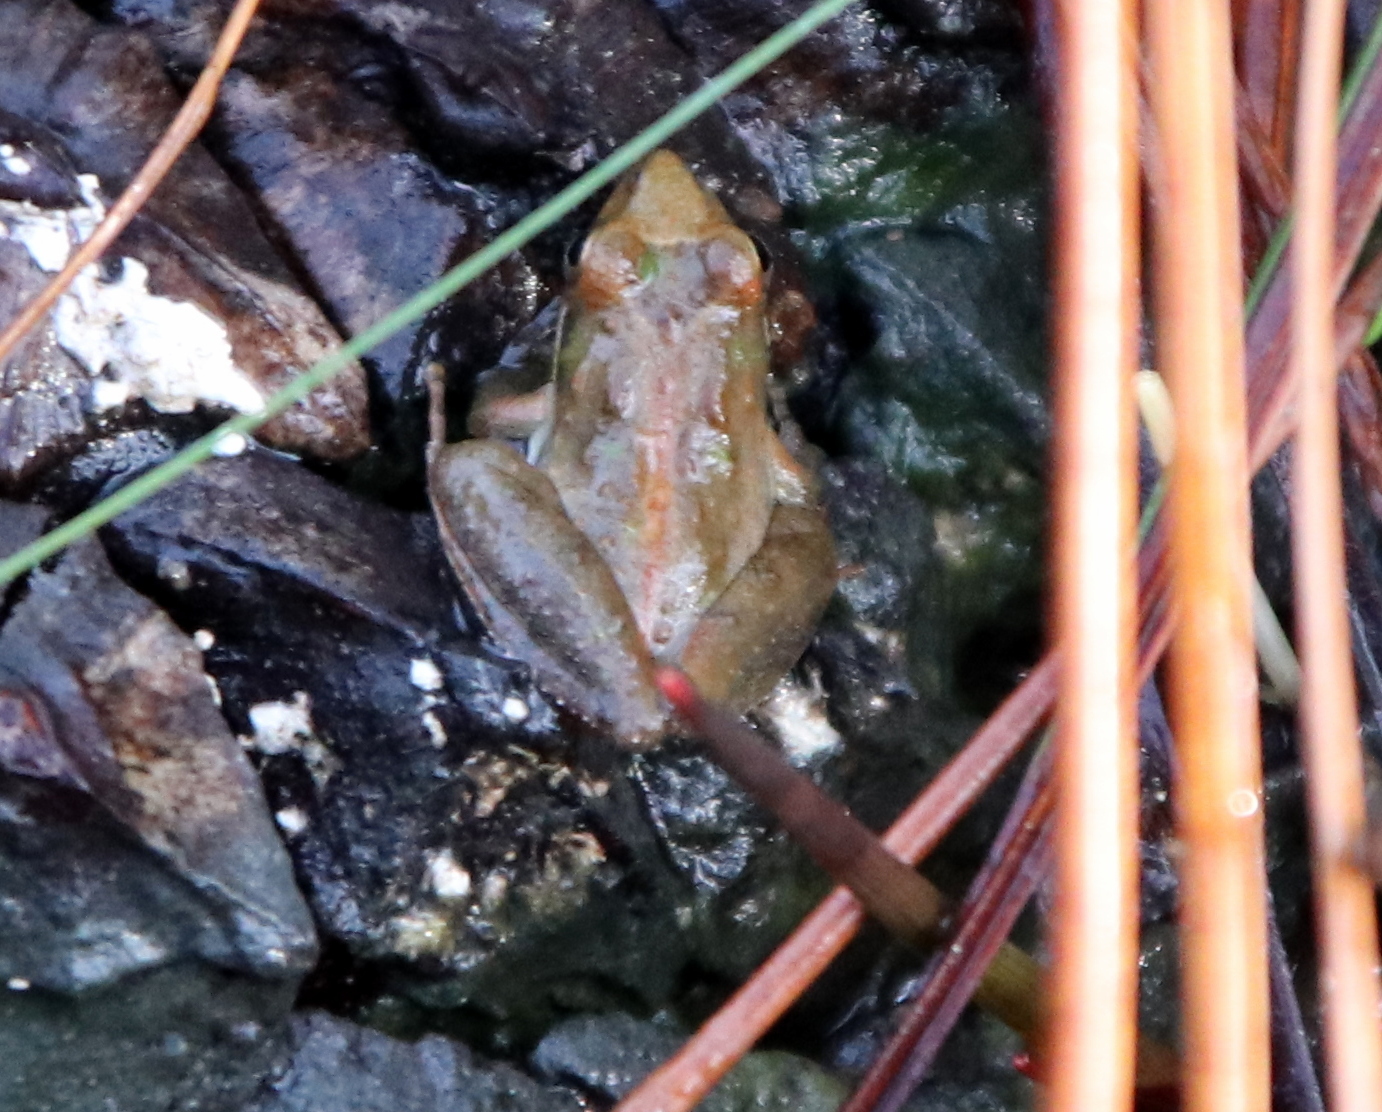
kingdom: Animalia
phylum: Chordata
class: Amphibia
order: Anura
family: Hylidae
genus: Acris
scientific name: Acris gryllus
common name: Southern cricket frog
